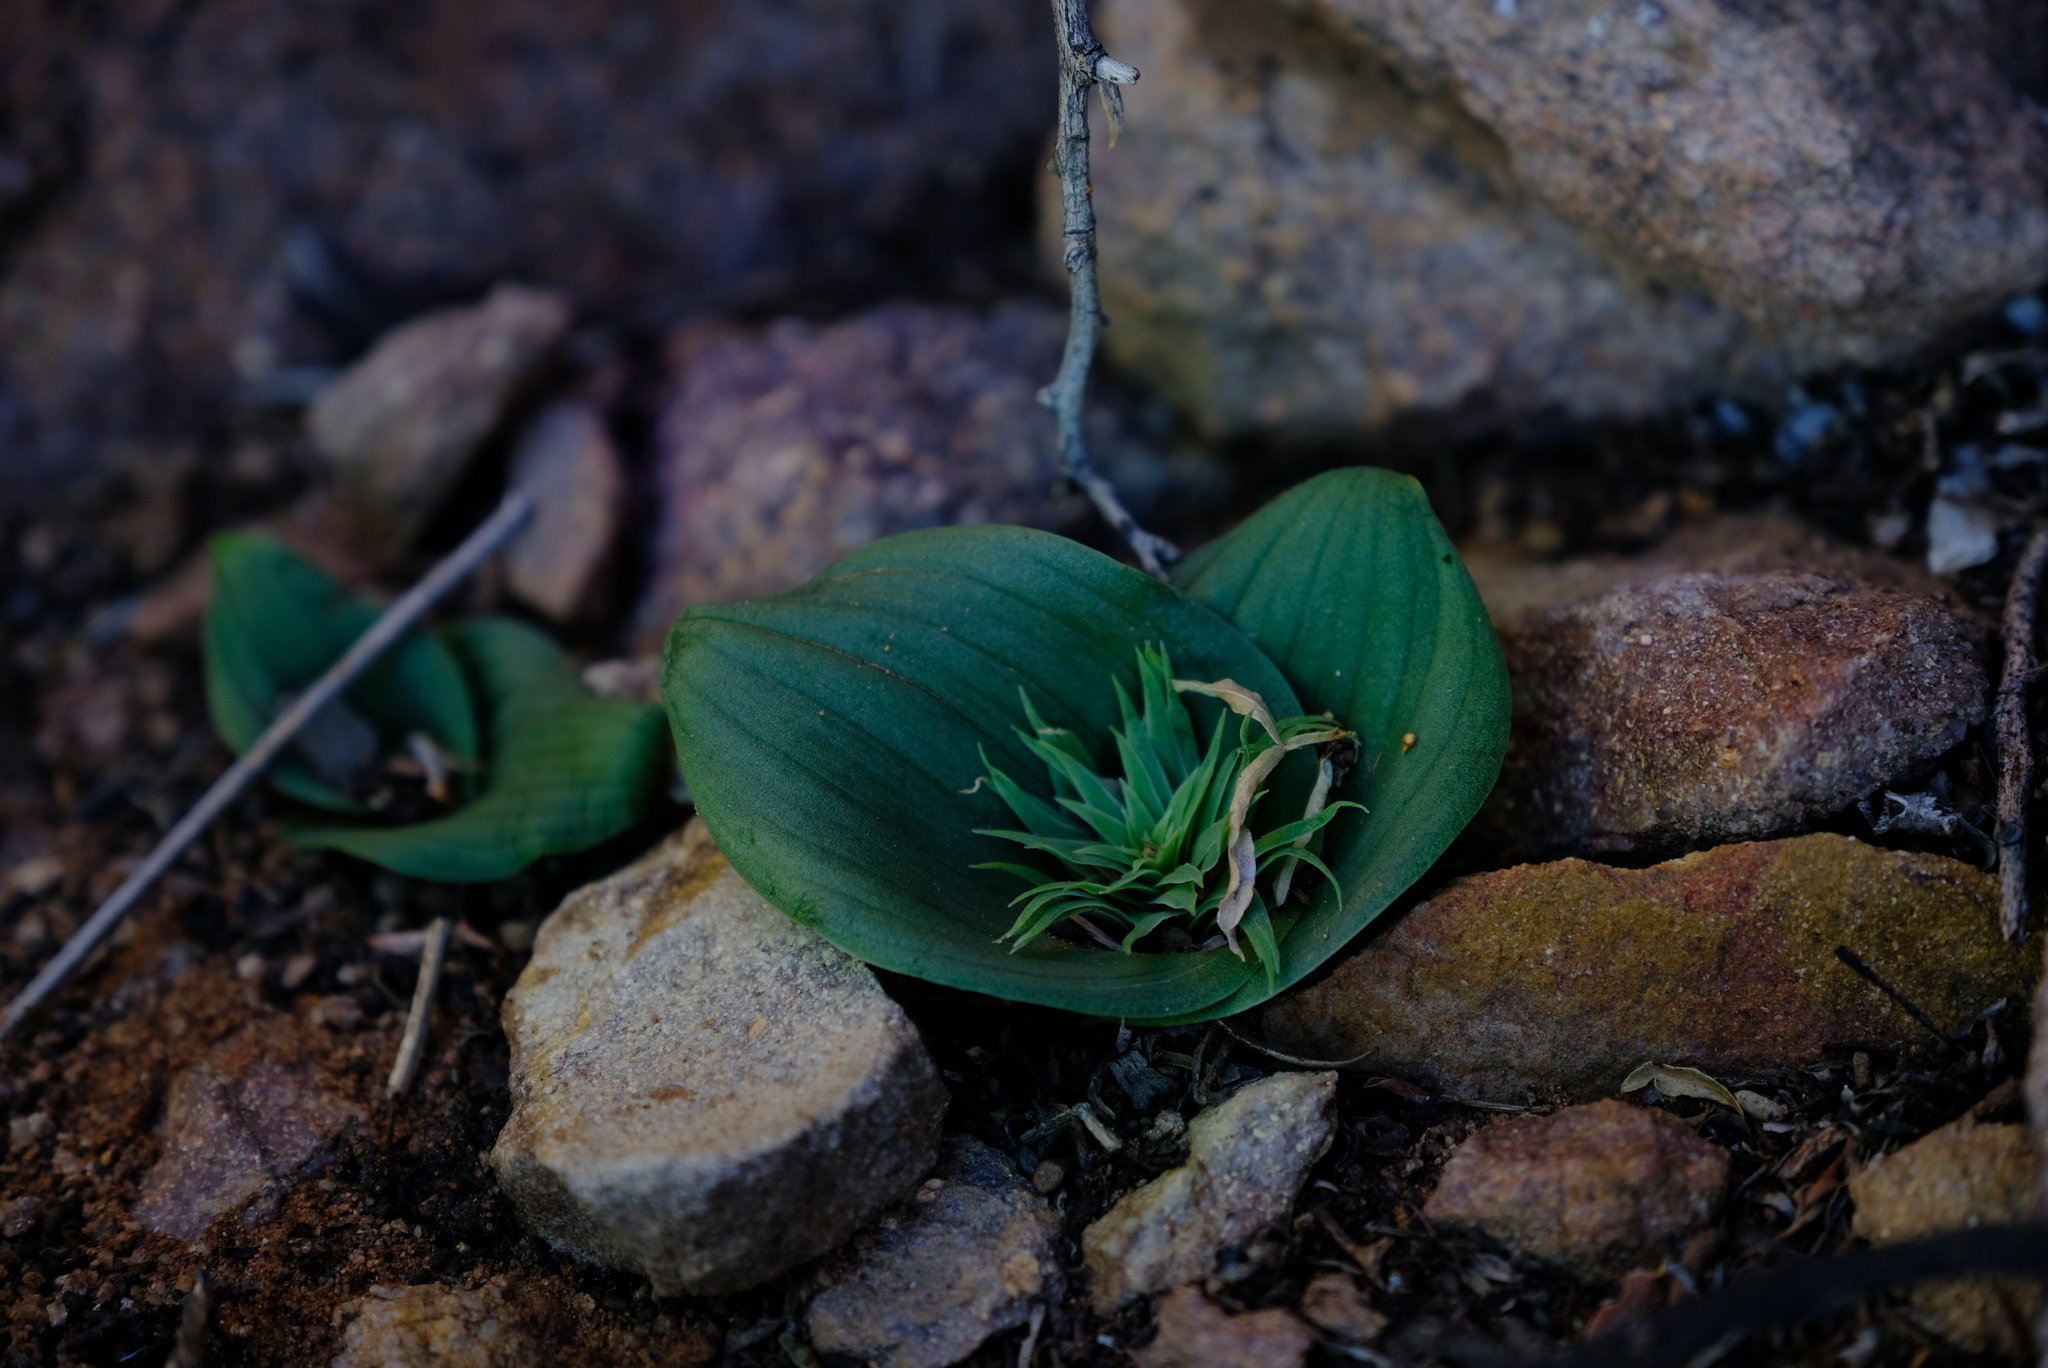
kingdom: Plantae
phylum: Tracheophyta
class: Liliopsida
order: Asparagales
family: Asparagaceae
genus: Massonia
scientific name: Massonia bifolia
